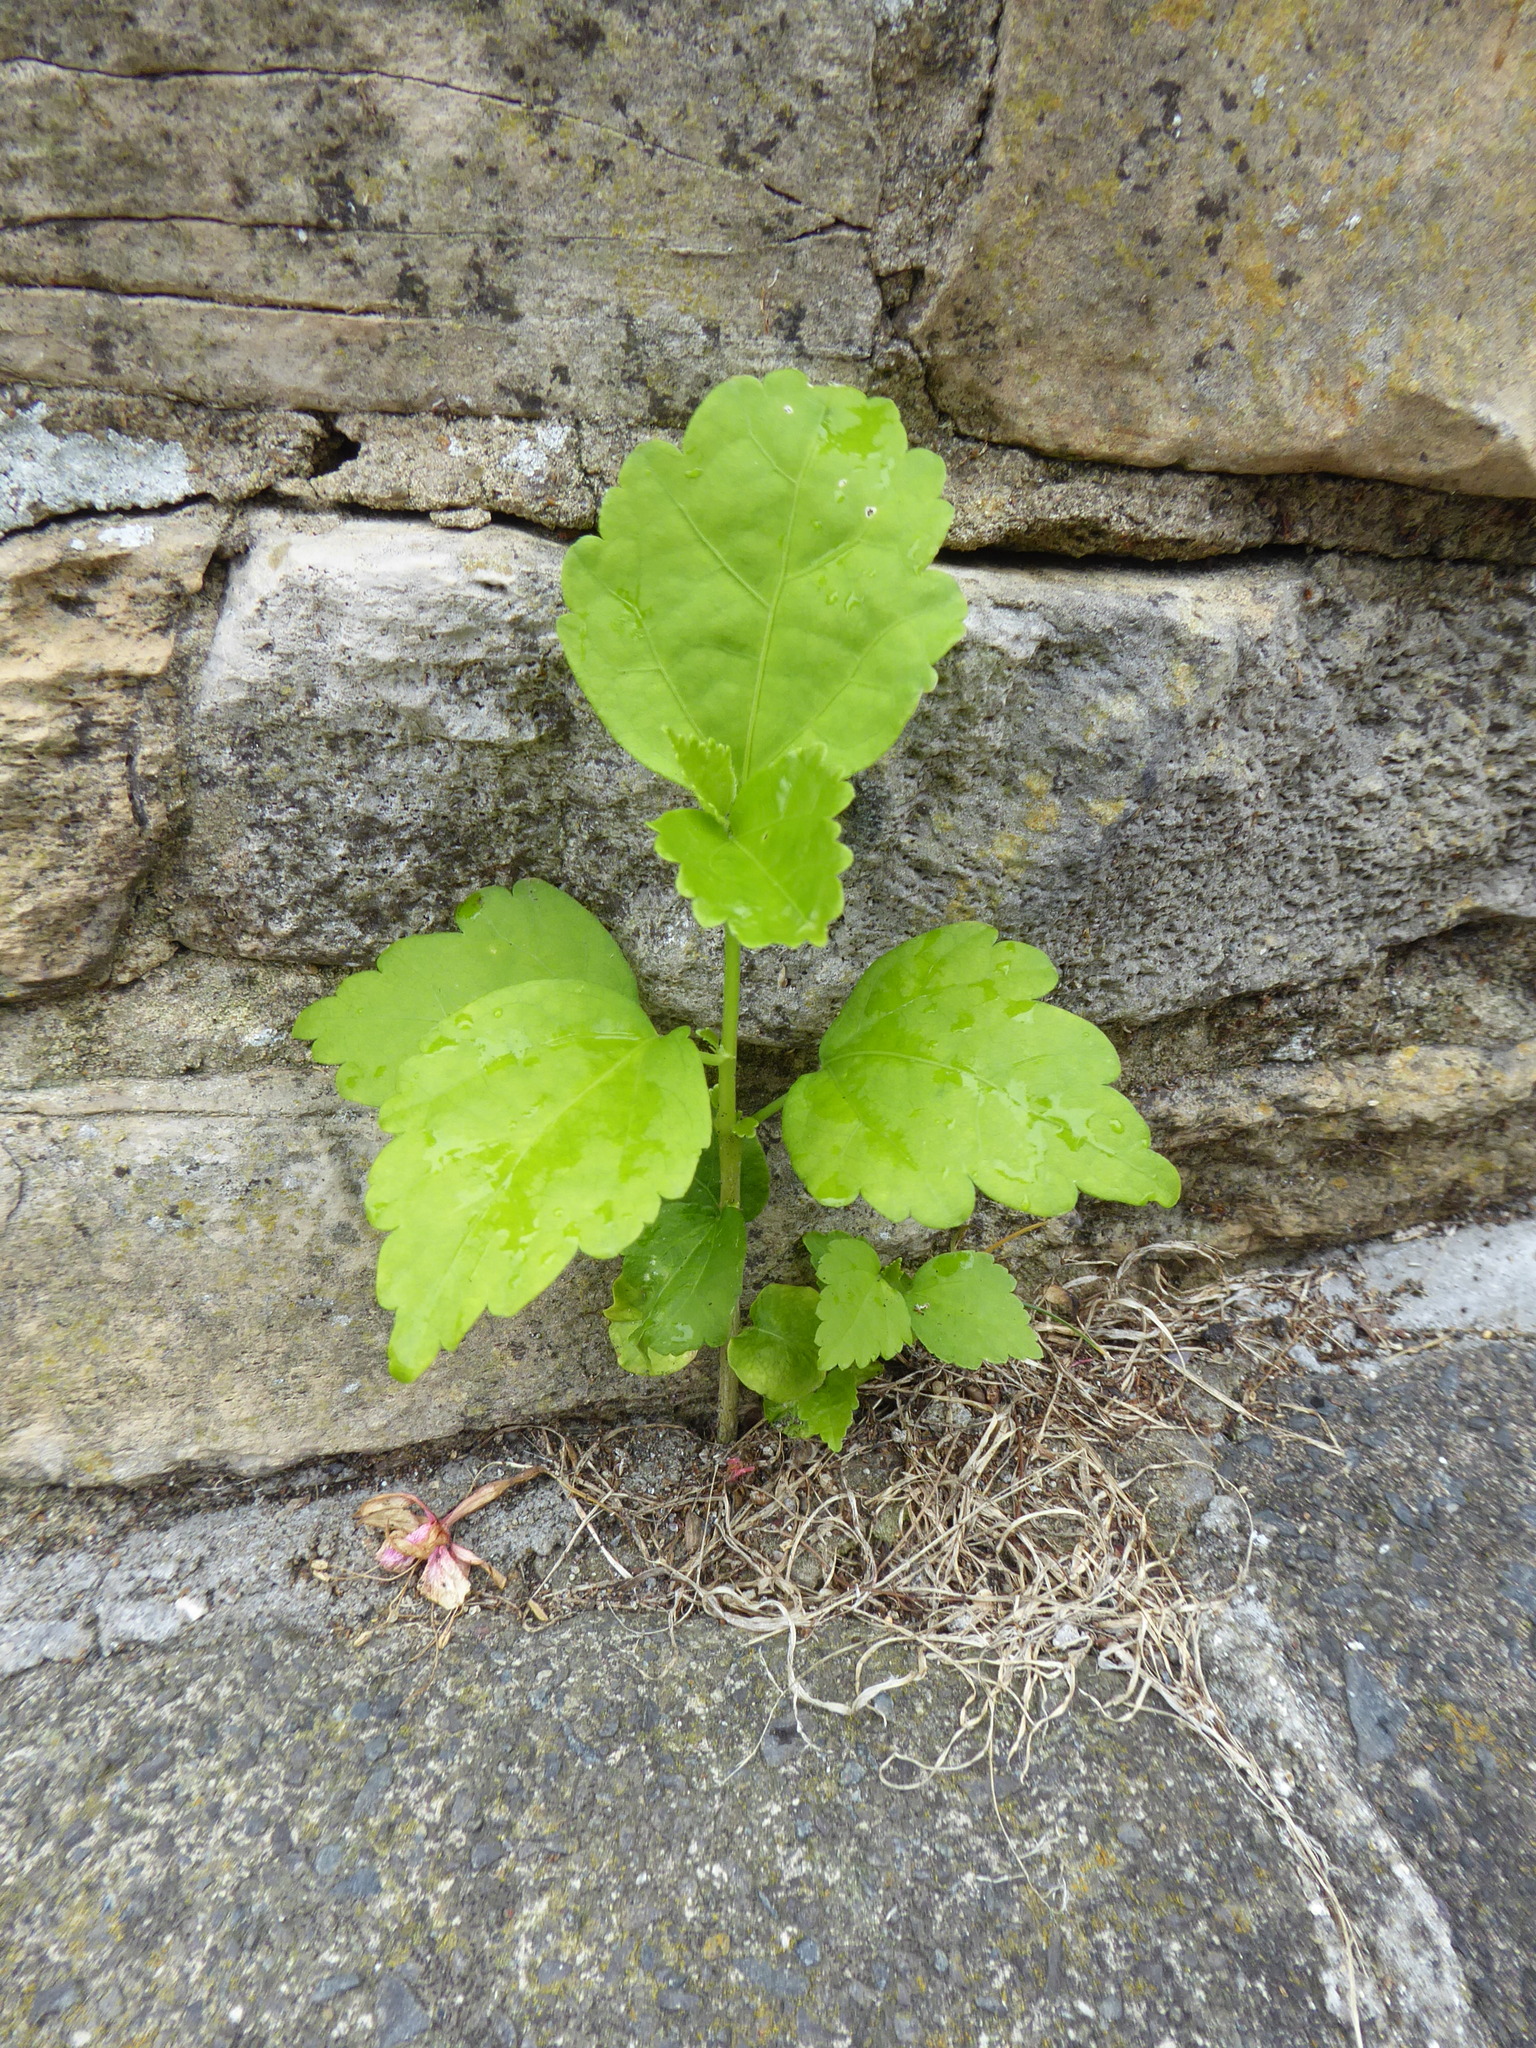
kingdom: Plantae
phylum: Tracheophyta
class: Magnoliopsida
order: Malvales
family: Malvaceae
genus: Hibiscus
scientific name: Hibiscus syriacus
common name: Syrian ketmia
